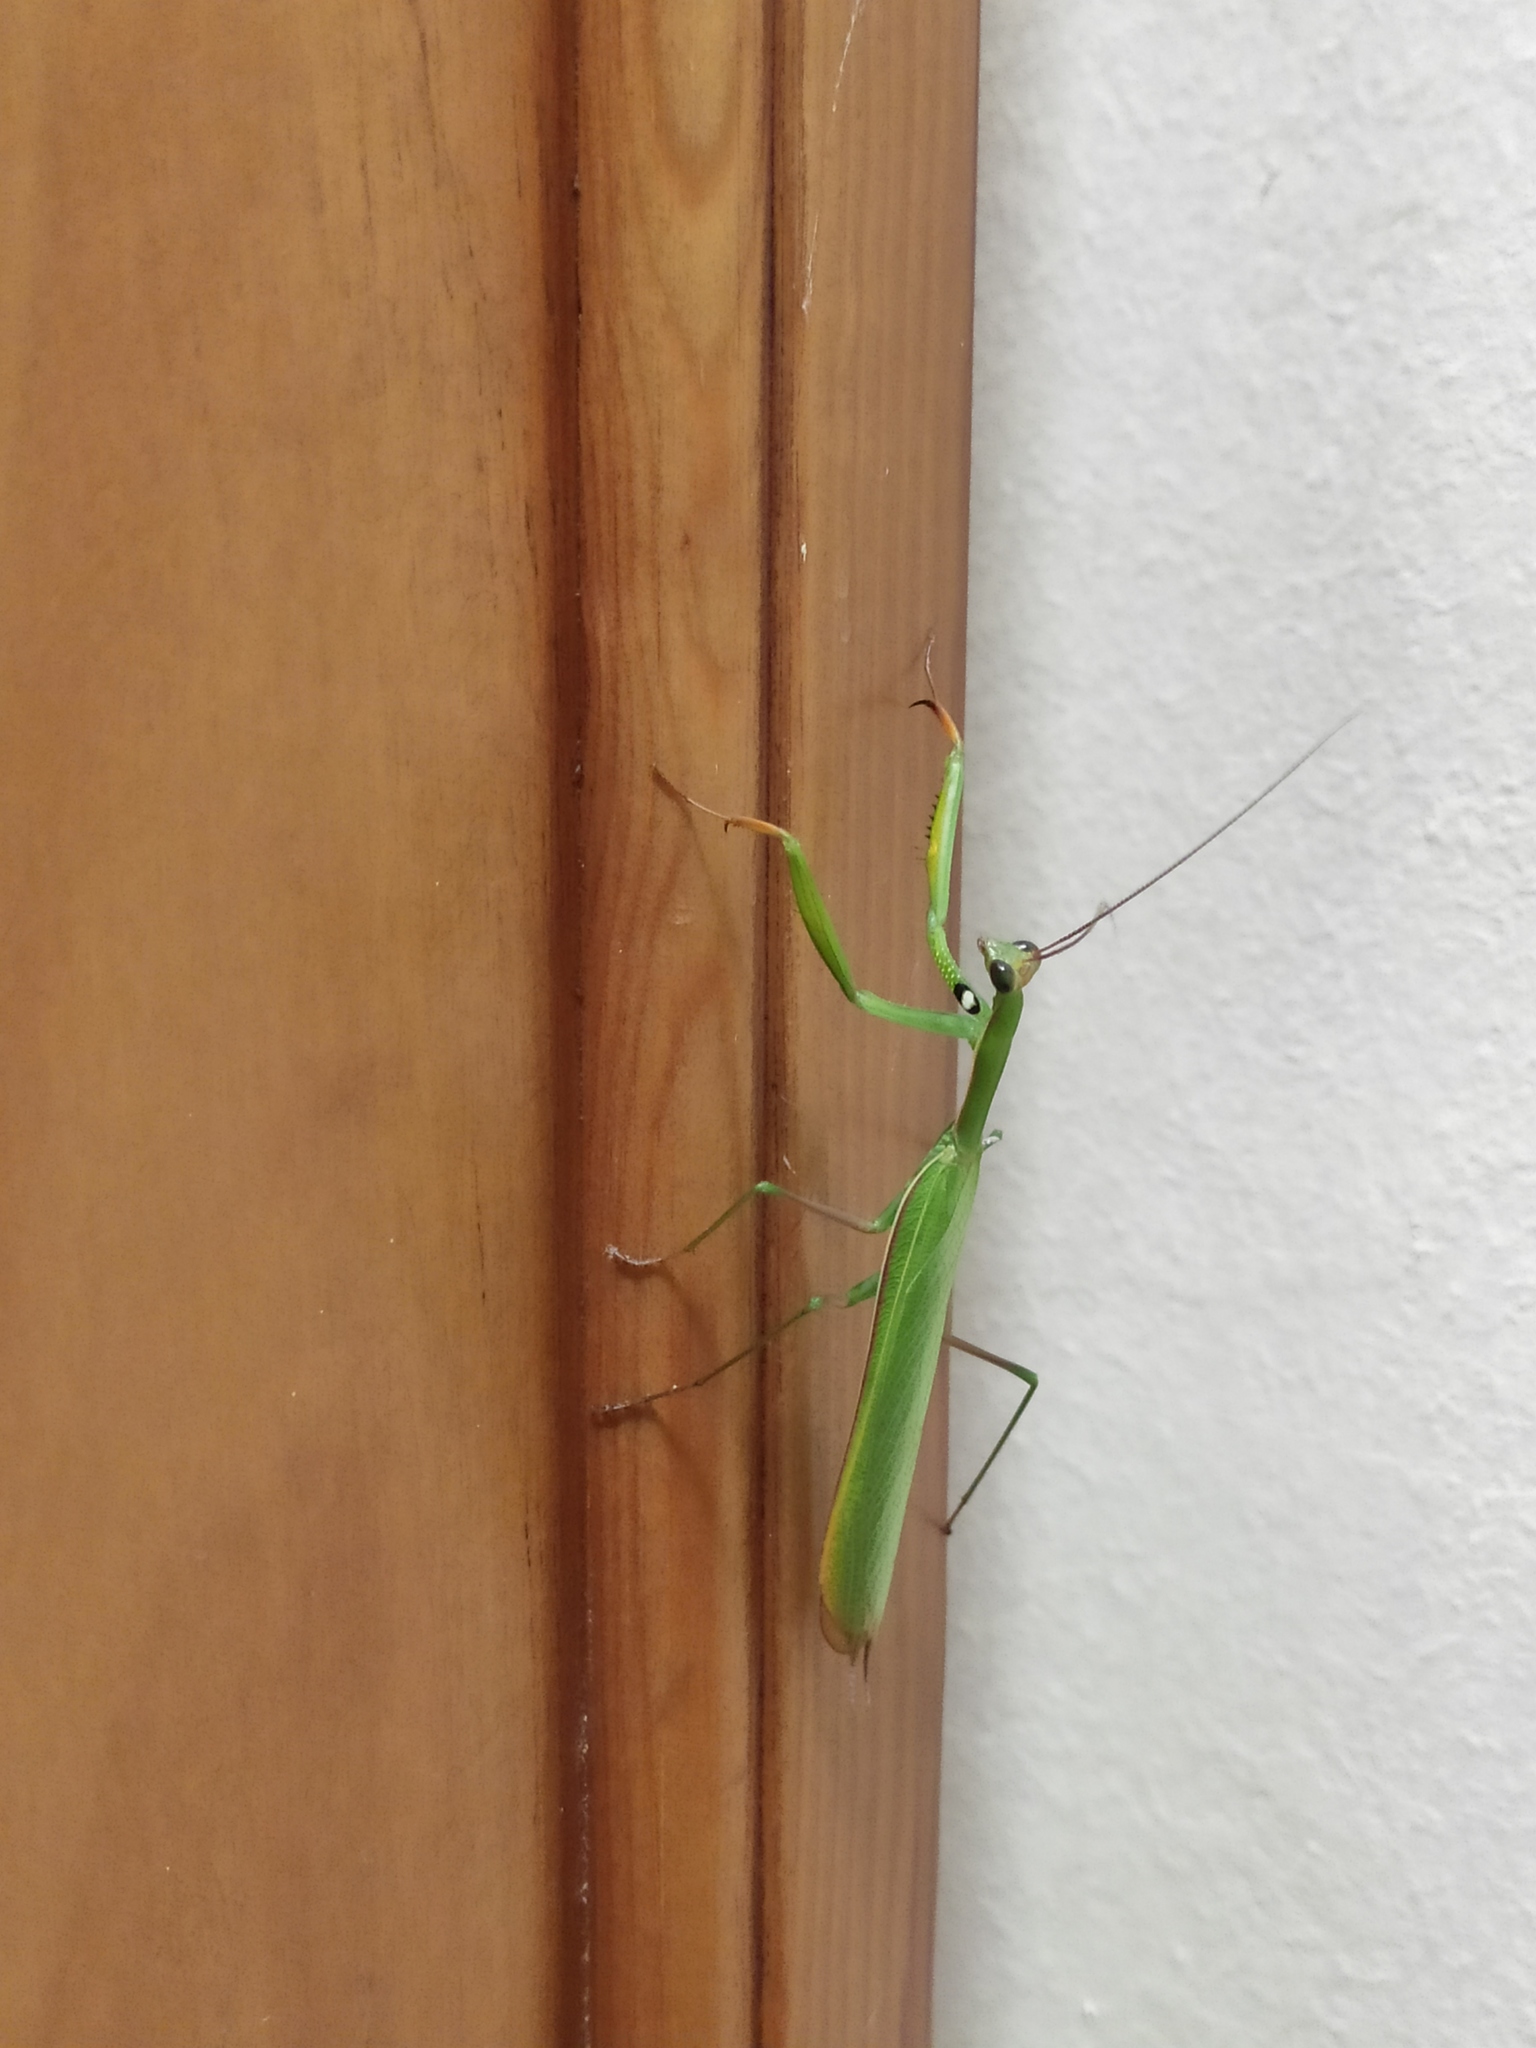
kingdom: Animalia
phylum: Arthropoda
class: Insecta
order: Mantodea
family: Mantidae
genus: Mantis
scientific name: Mantis religiosa
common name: Praying mantis
